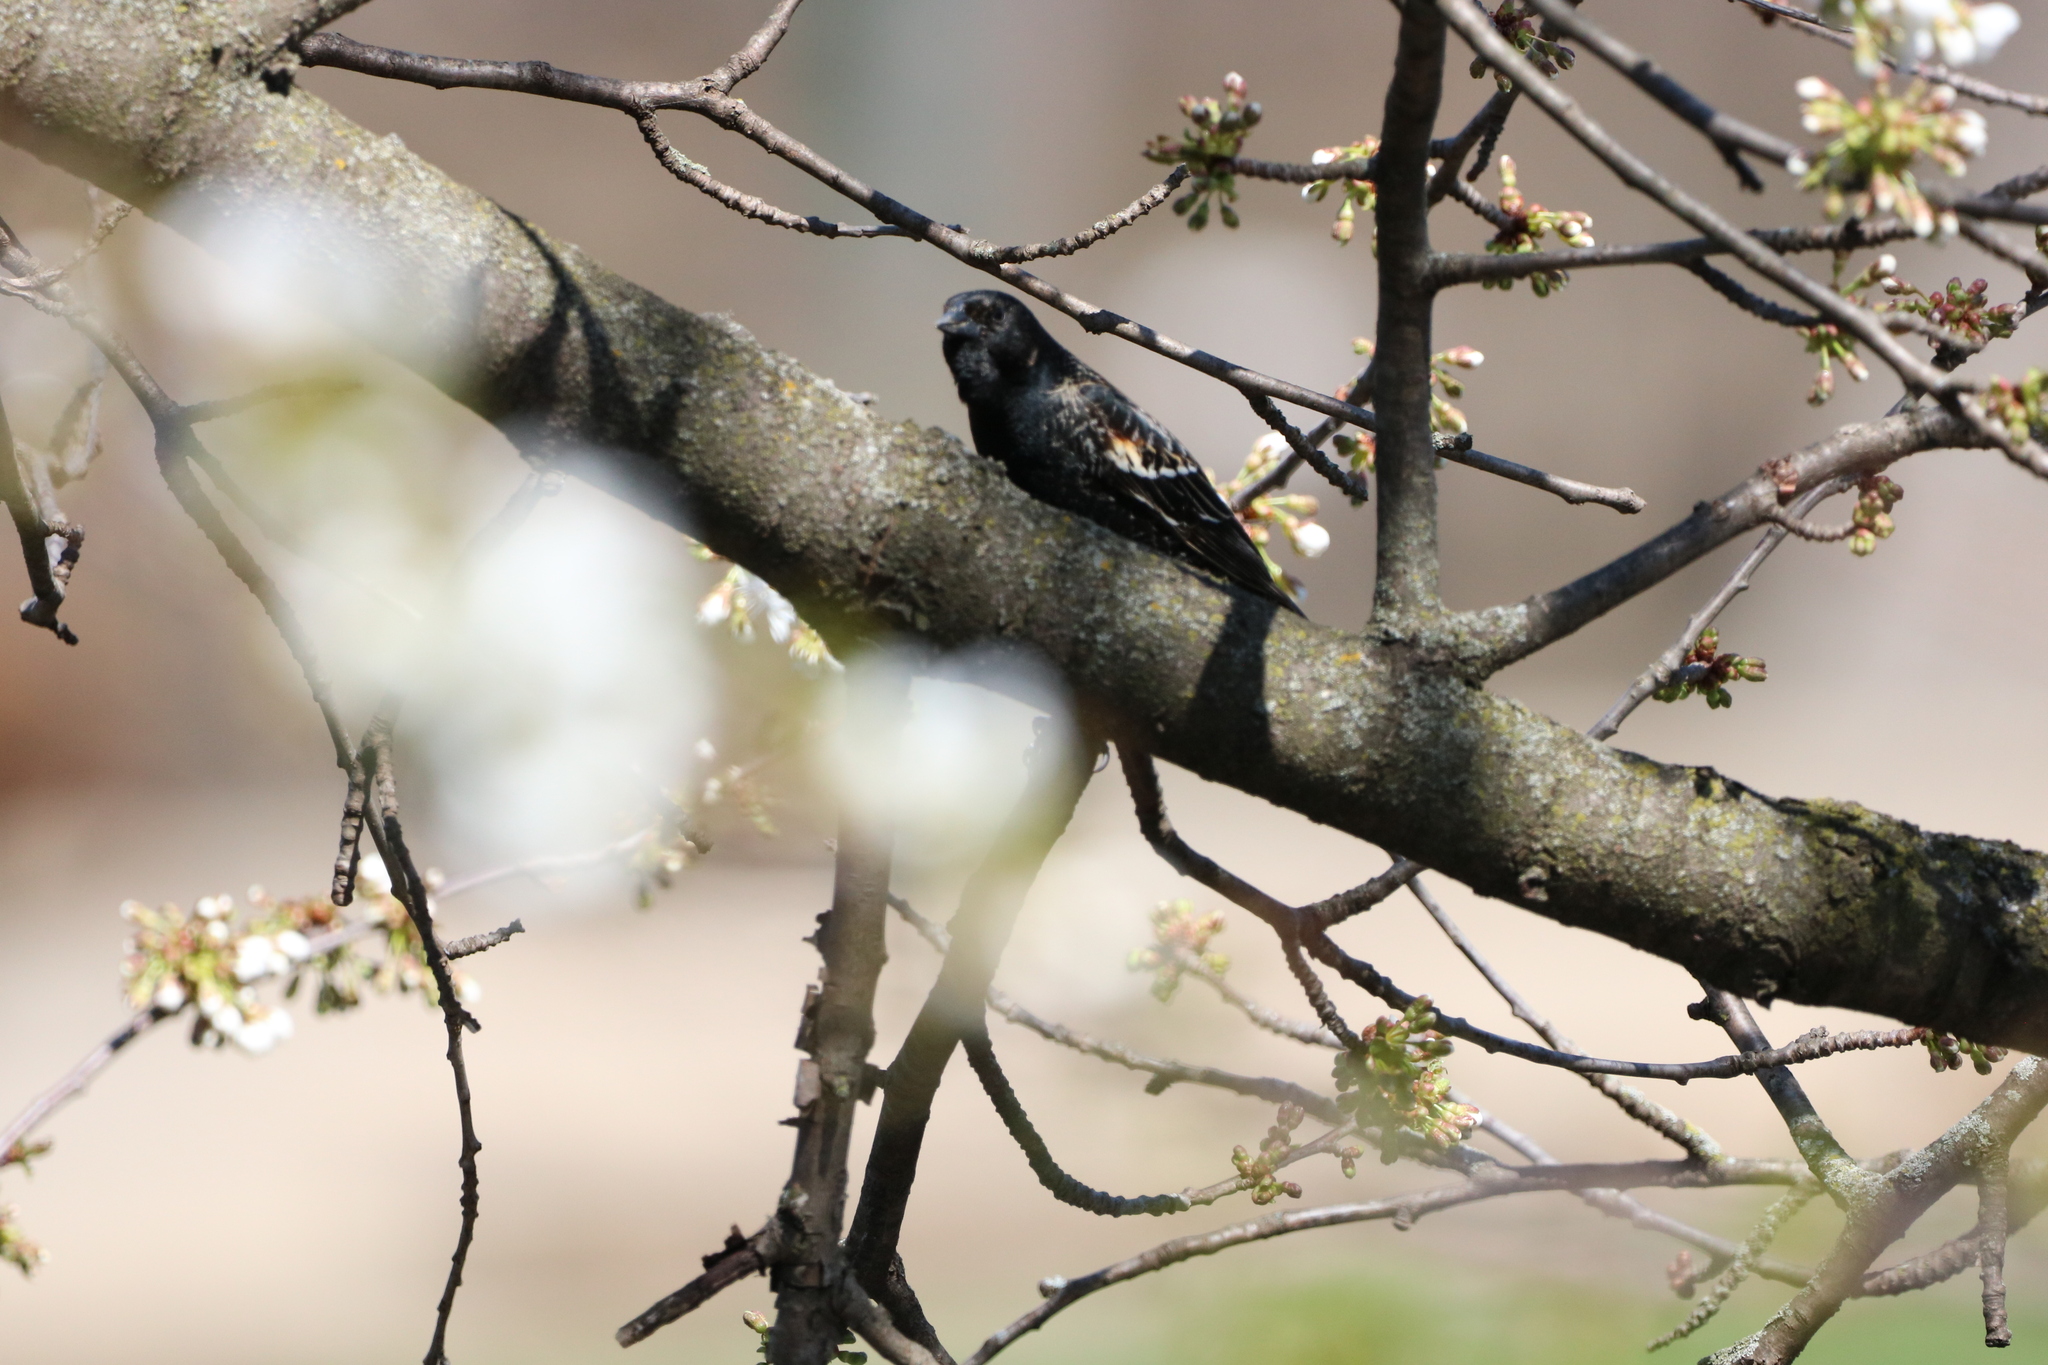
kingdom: Animalia
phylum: Chordata
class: Aves
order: Passeriformes
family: Icteridae
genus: Agelaius
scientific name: Agelaius phoeniceus
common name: Red-winged blackbird
